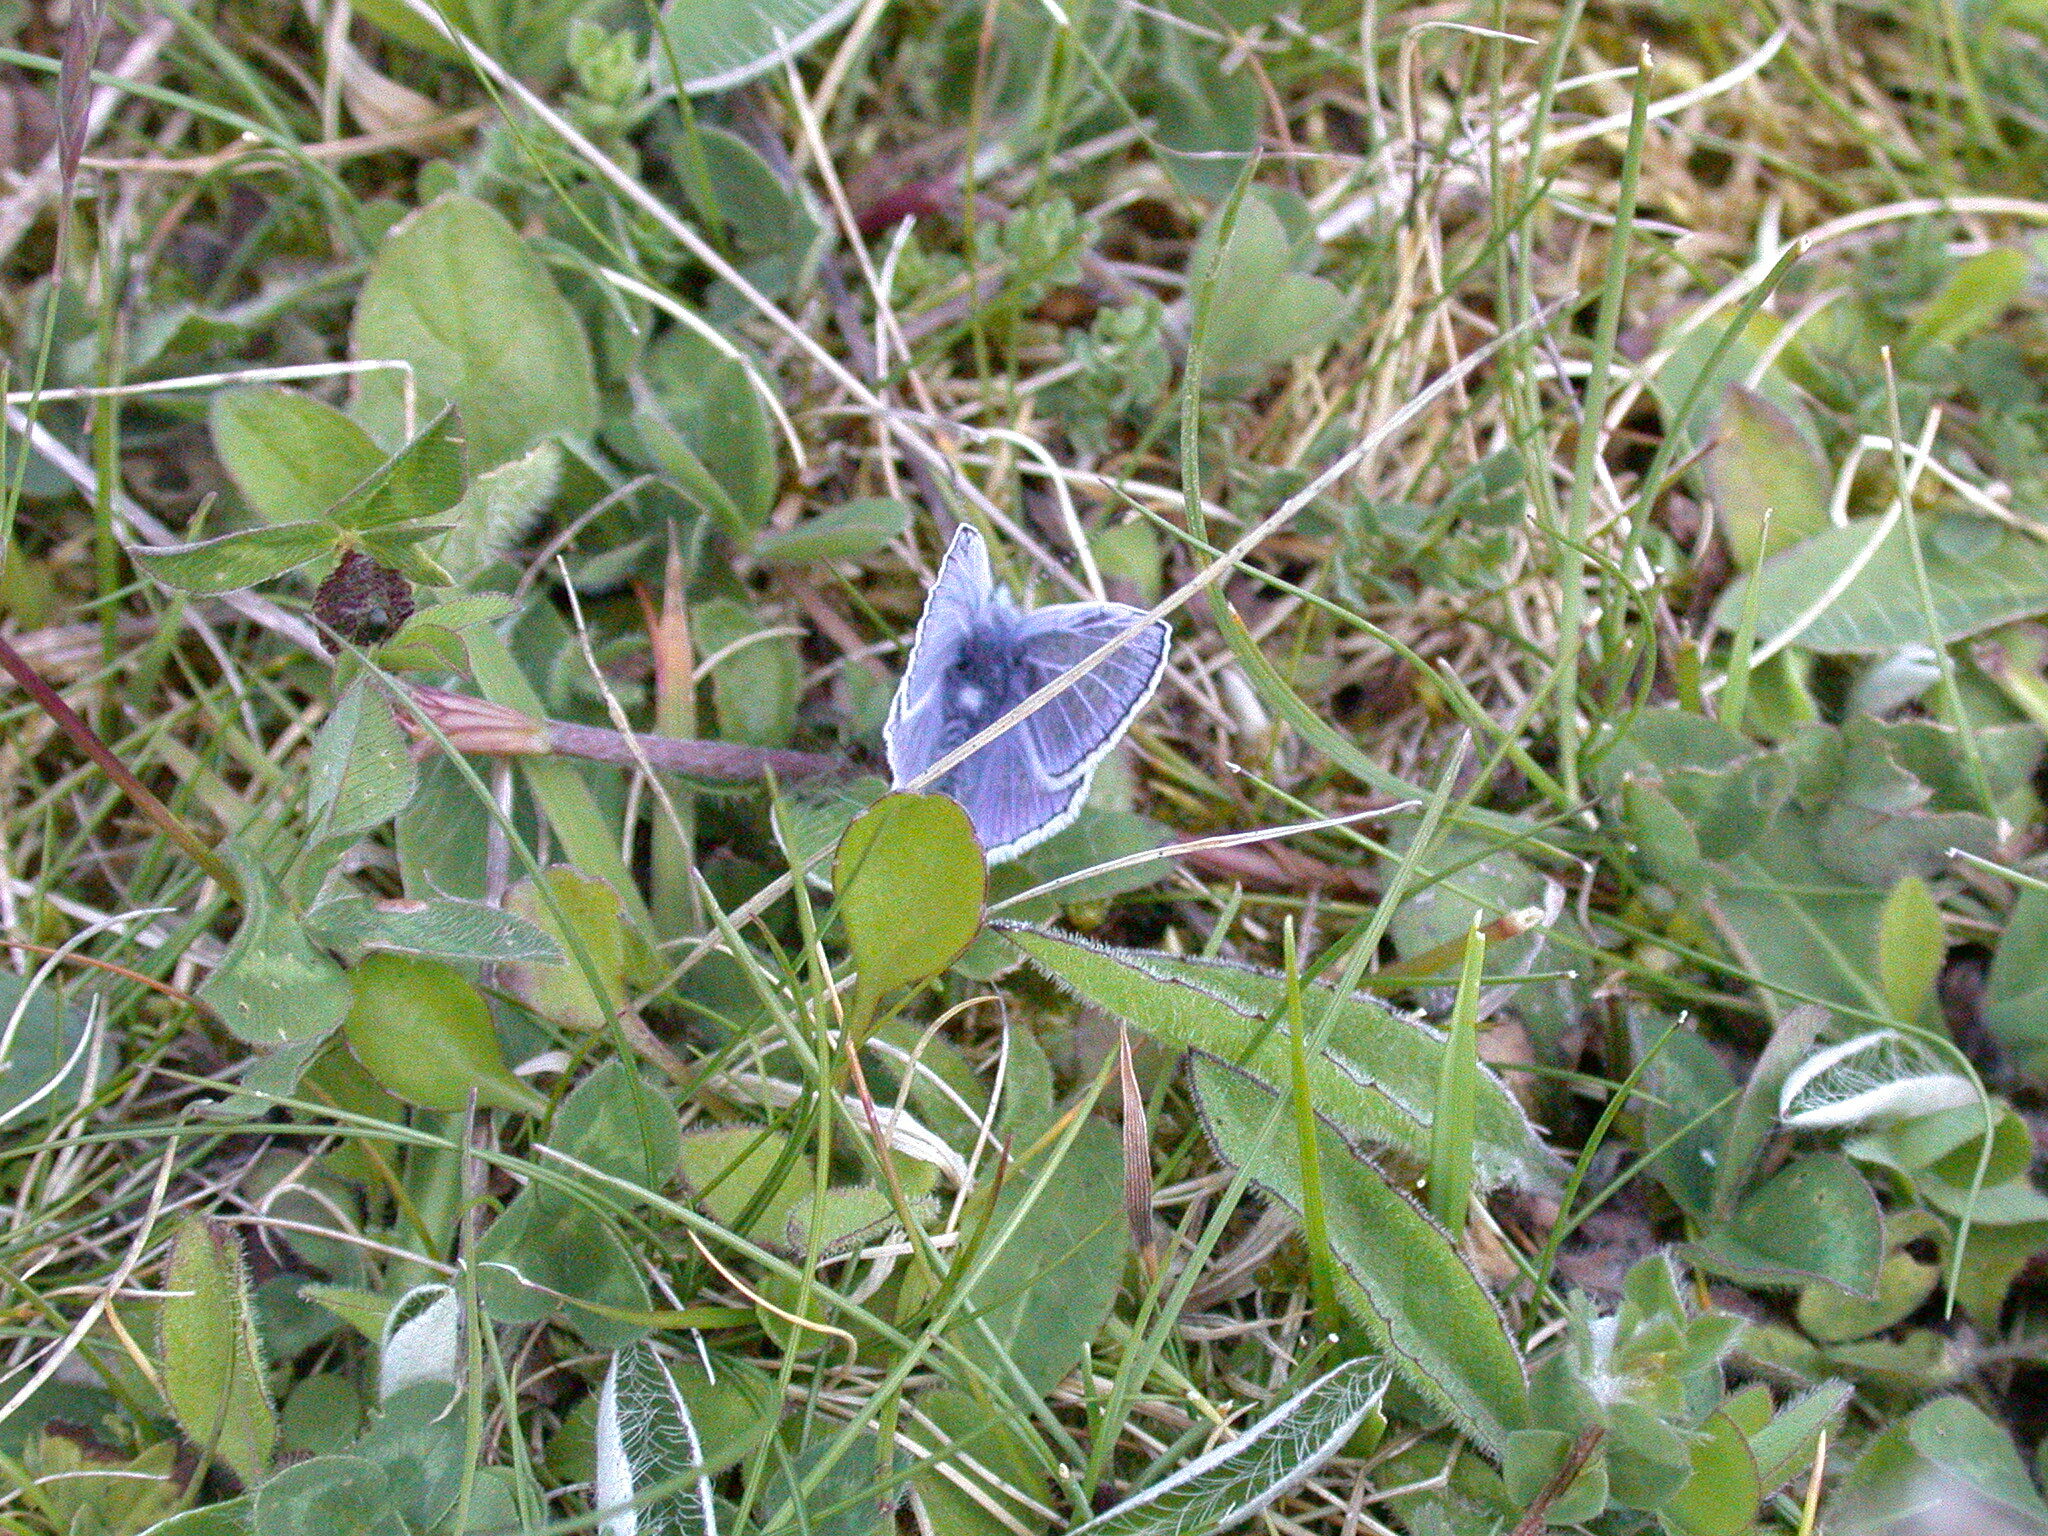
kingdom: Animalia
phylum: Arthropoda
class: Insecta
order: Lepidoptera
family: Lycaenidae
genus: Polyommatus
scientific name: Polyommatus icarus
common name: Common blue
